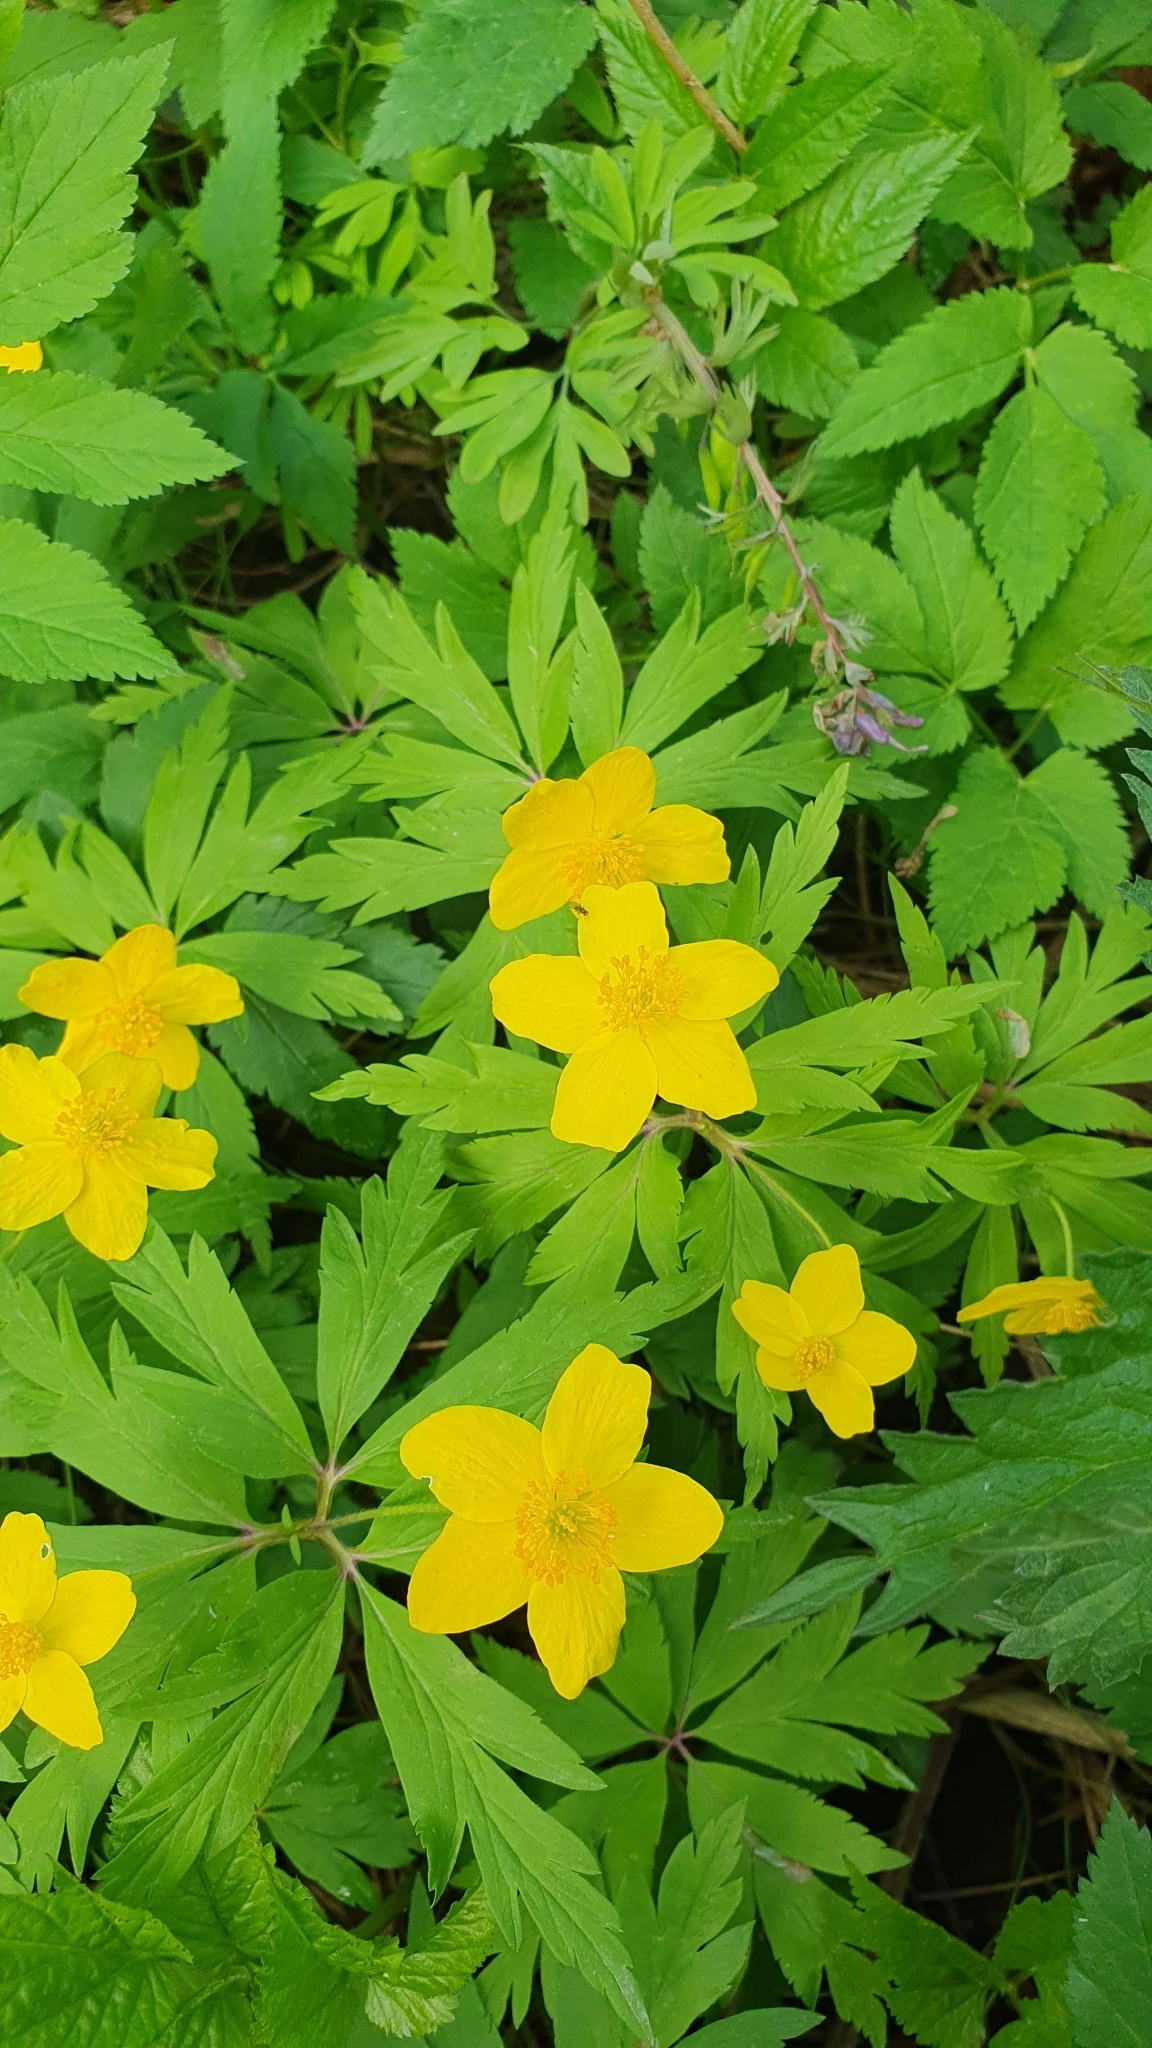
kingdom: Plantae
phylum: Tracheophyta
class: Magnoliopsida
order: Ranunculales
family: Ranunculaceae
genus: Anemone
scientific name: Anemone ranunculoides
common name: Yellow anemone
